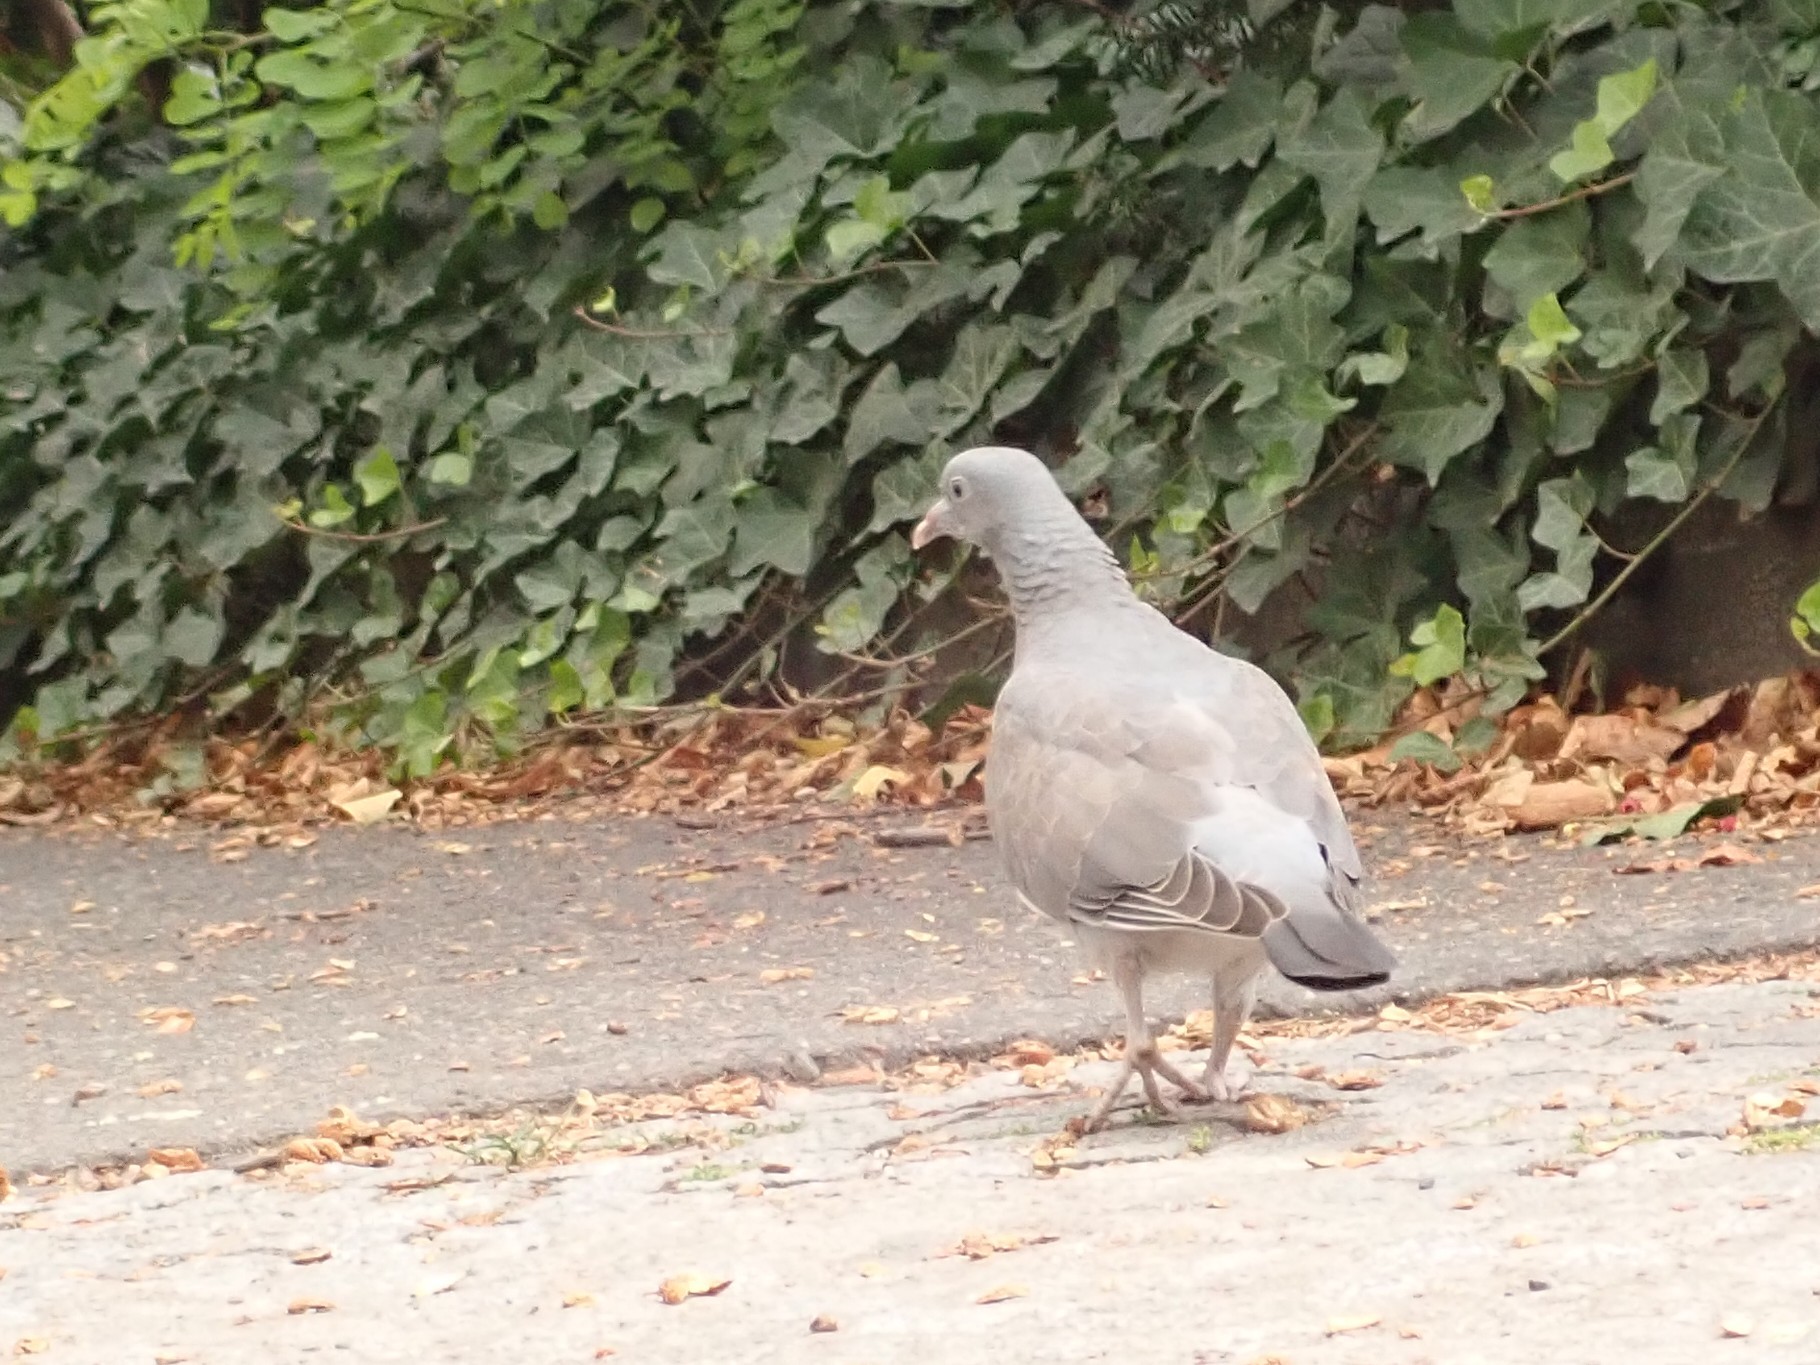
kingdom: Animalia
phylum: Chordata
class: Aves
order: Columbiformes
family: Columbidae
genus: Columba
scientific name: Columba palumbus
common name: Common wood pigeon
